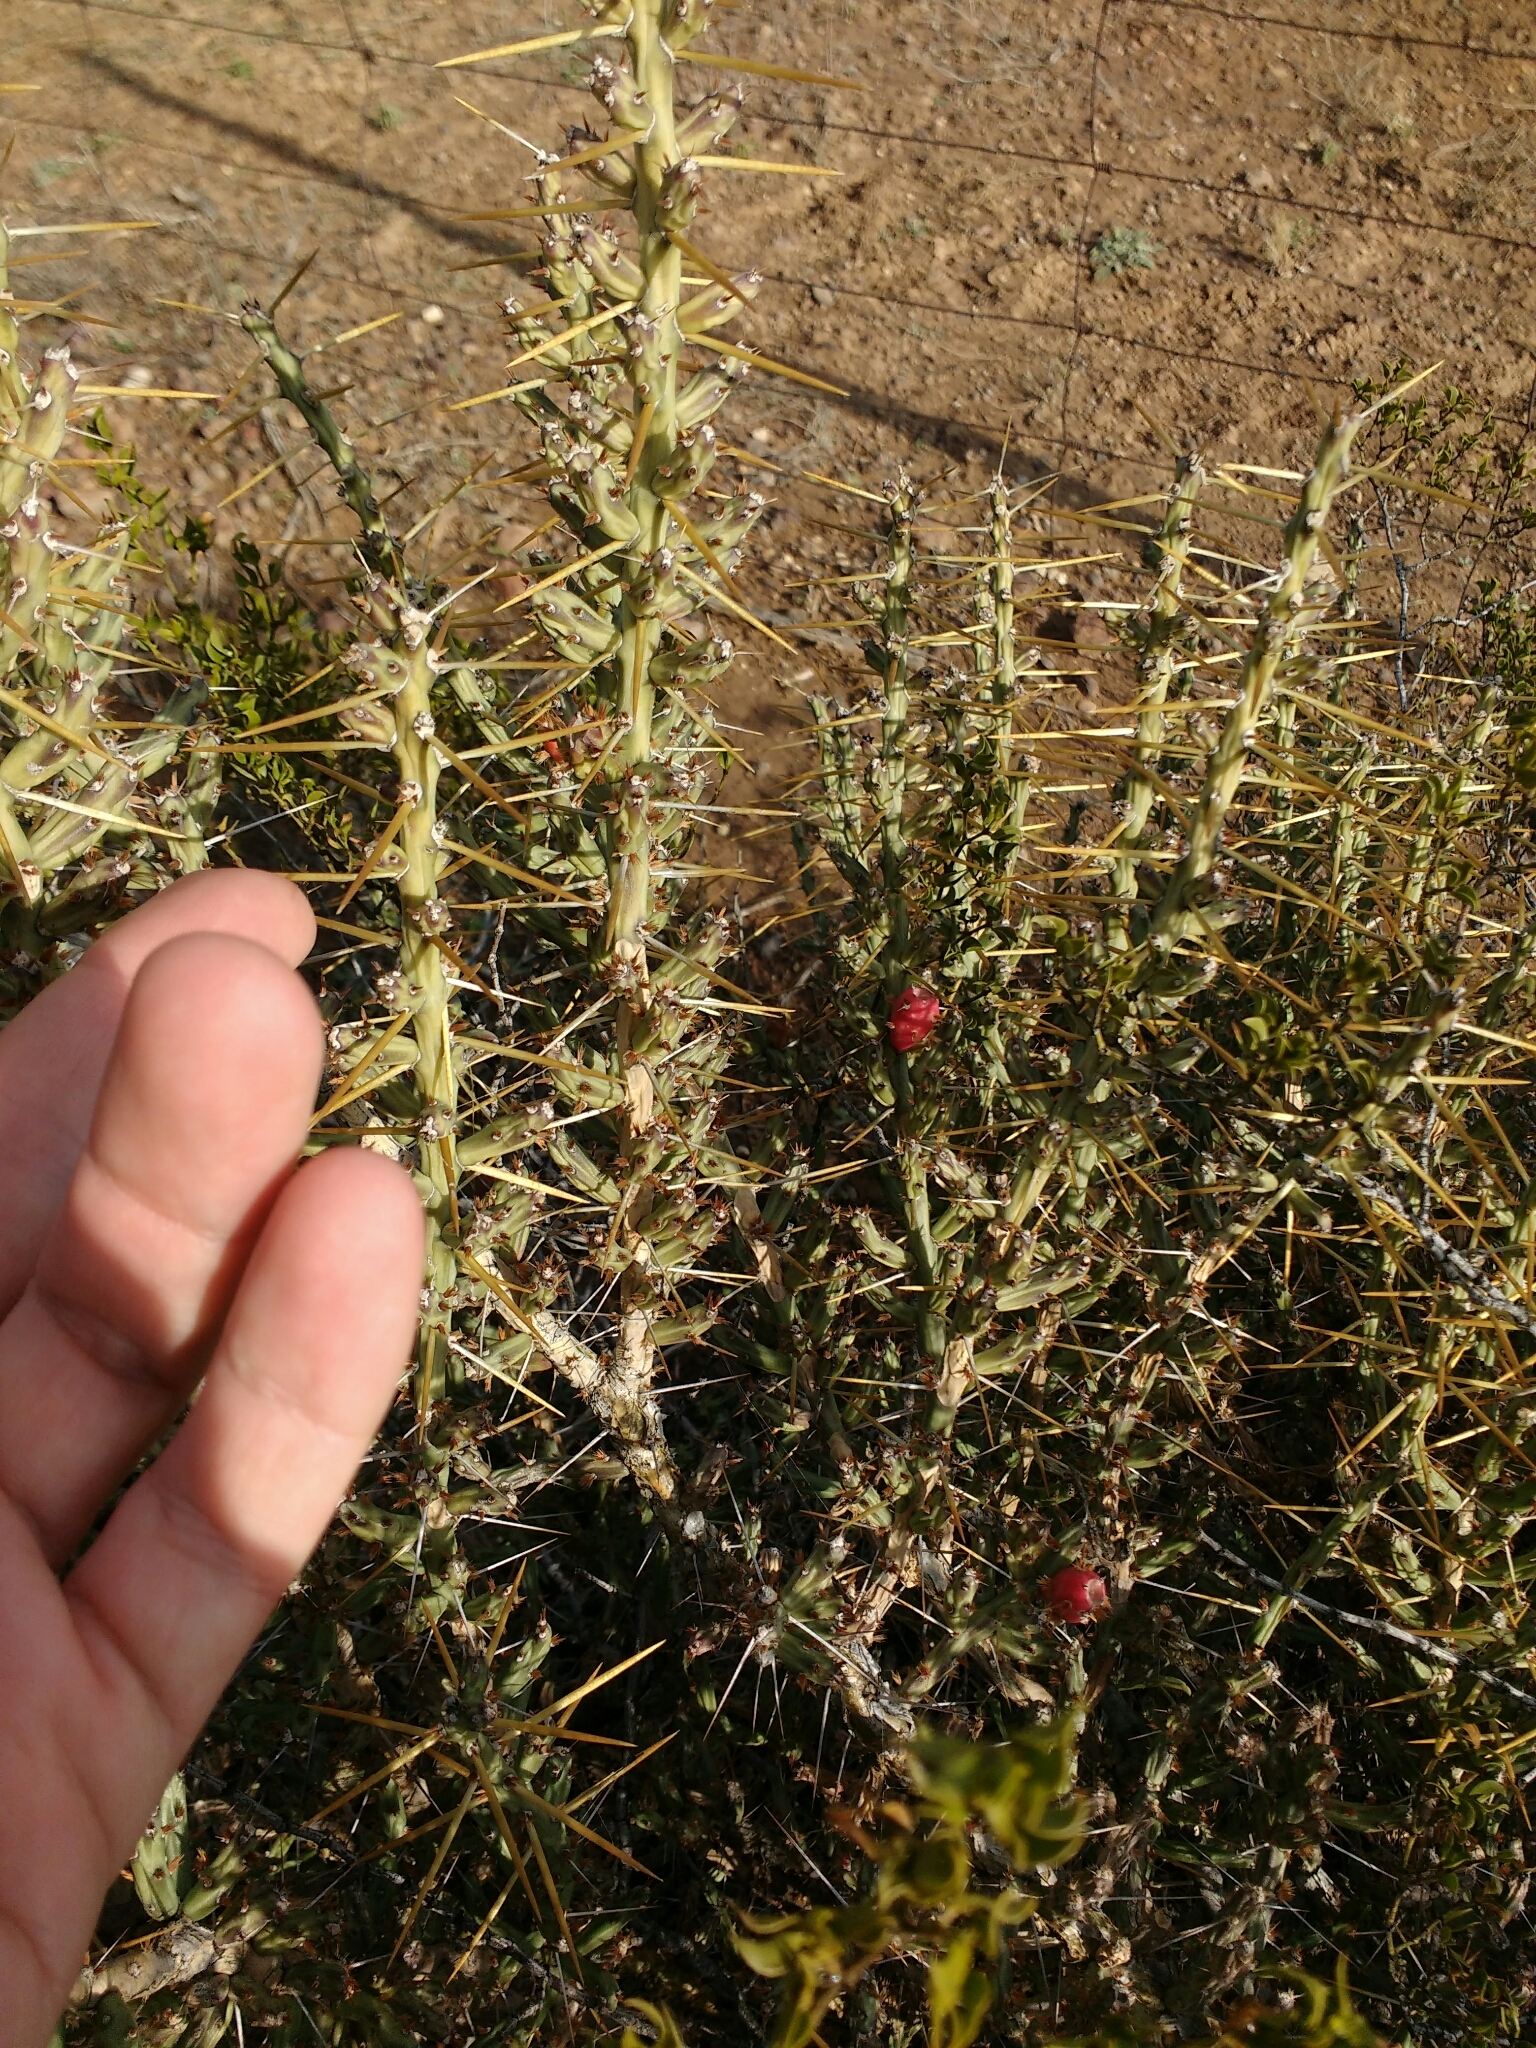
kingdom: Plantae
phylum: Tracheophyta
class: Magnoliopsida
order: Caryophyllales
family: Cactaceae
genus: Cylindropuntia
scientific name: Cylindropuntia leptocaulis
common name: Christmas cactus
